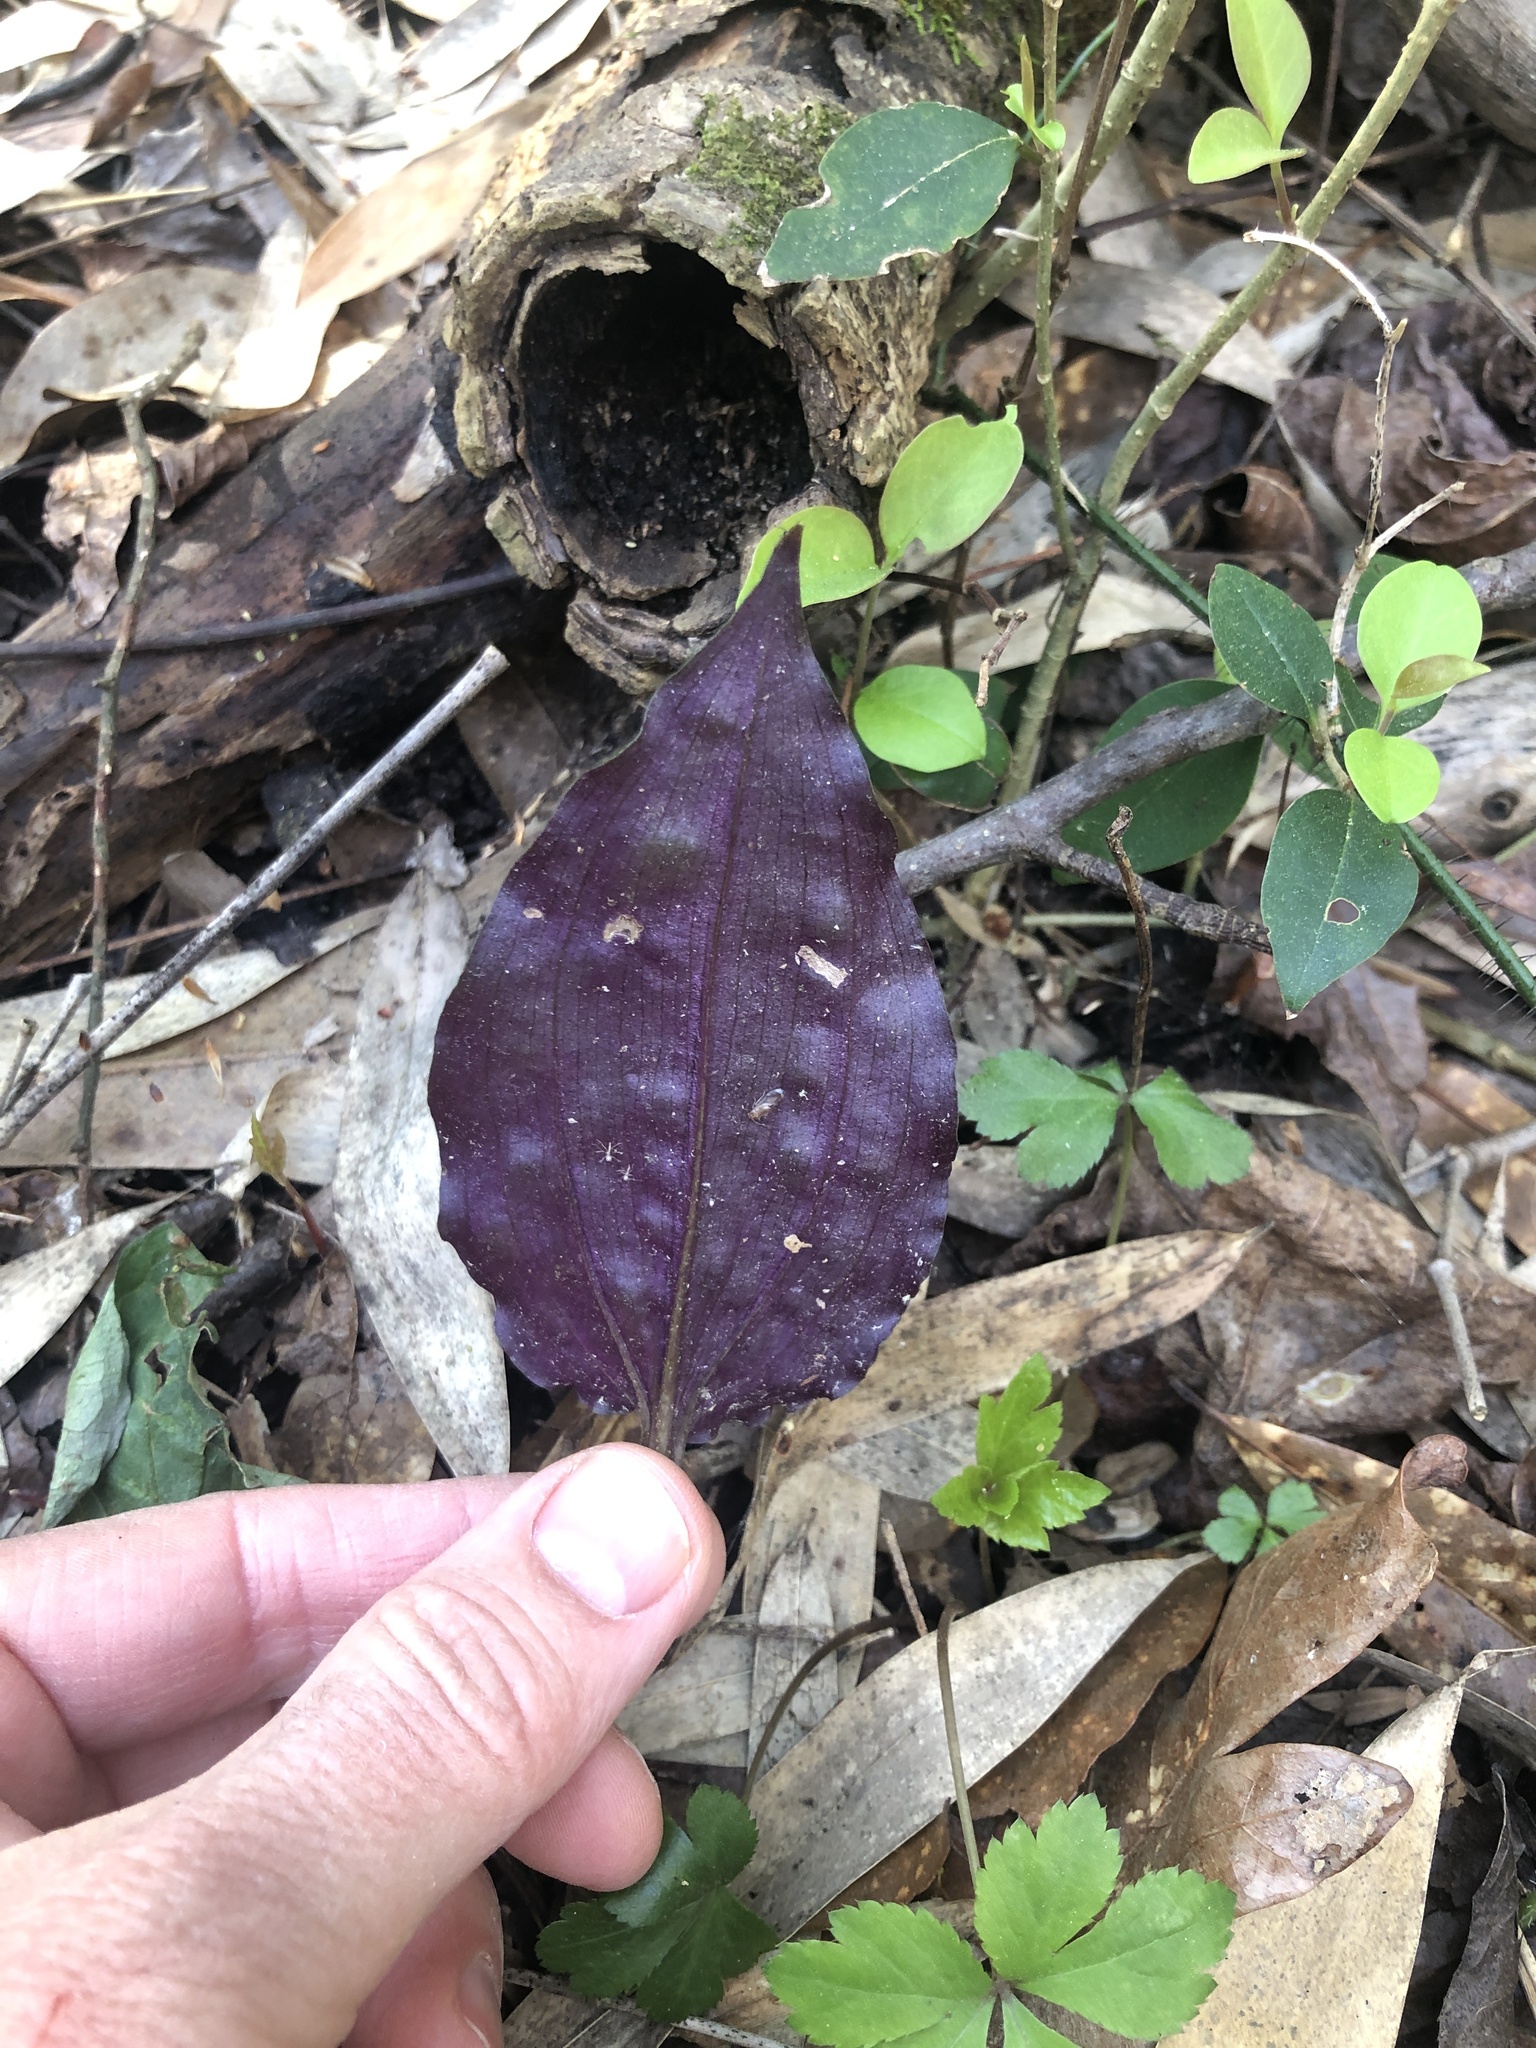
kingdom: Plantae
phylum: Tracheophyta
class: Liliopsida
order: Asparagales
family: Orchidaceae
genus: Tipularia
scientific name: Tipularia discolor
